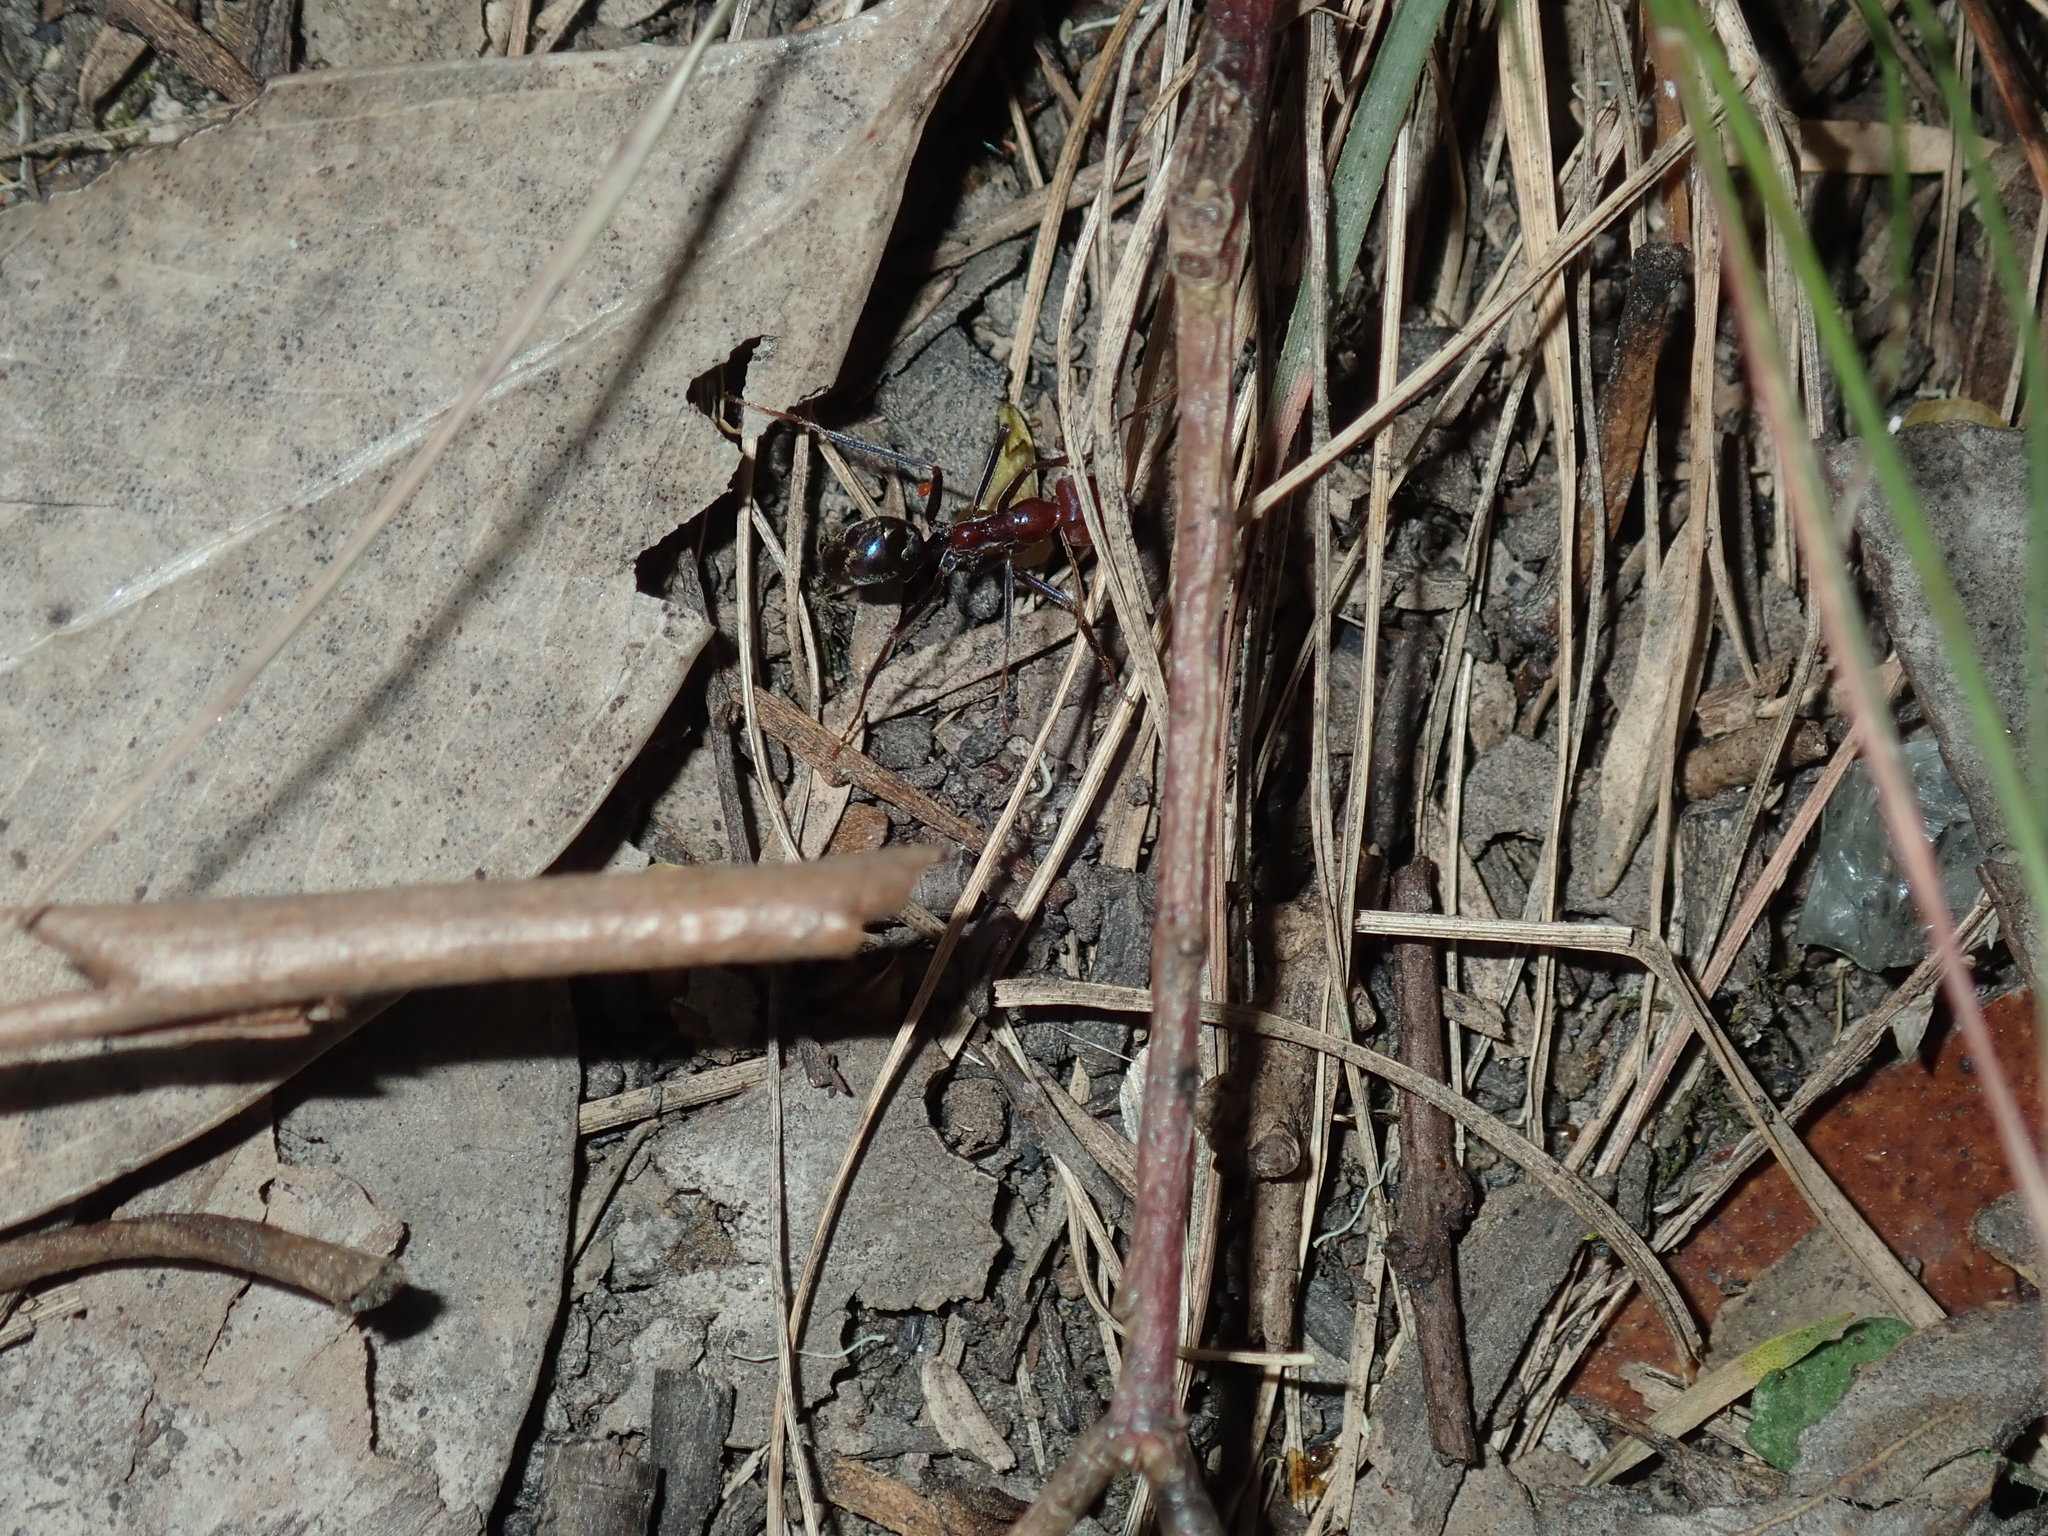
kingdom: Animalia
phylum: Arthropoda
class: Insecta
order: Hymenoptera
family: Formicidae
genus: Iridomyrmex
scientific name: Iridomyrmex purpureus
